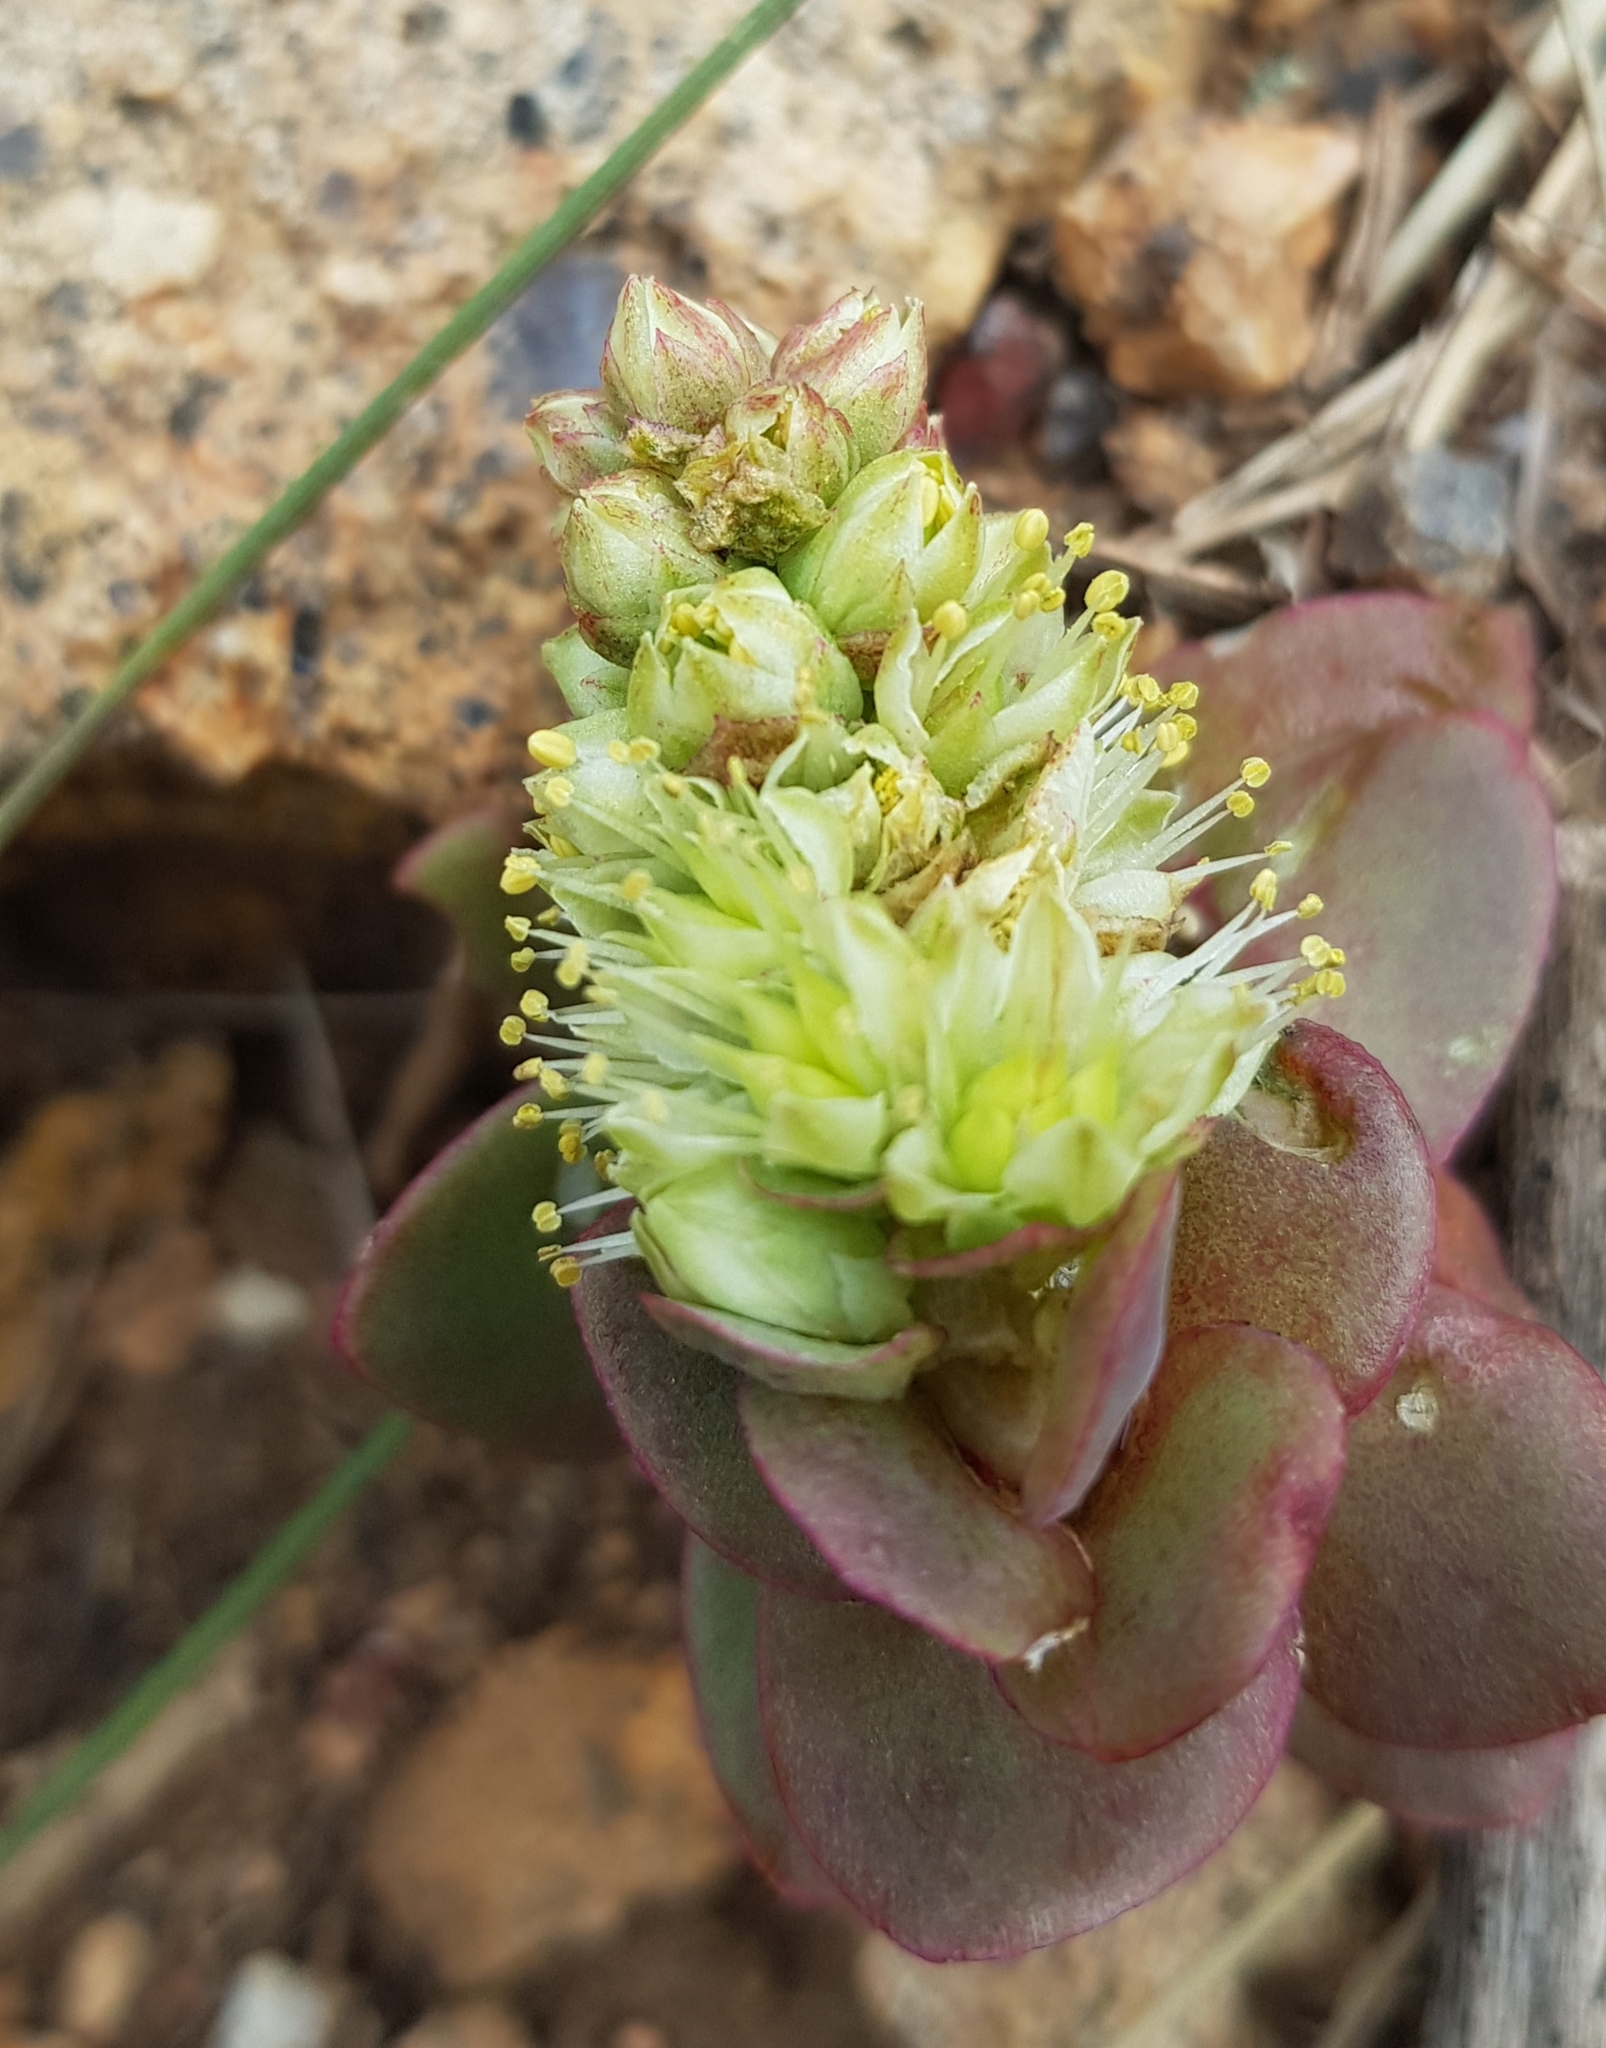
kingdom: Plantae
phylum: Tracheophyta
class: Magnoliopsida
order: Saxifragales
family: Crassulaceae
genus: Orostachys
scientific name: Orostachys malacophylla
